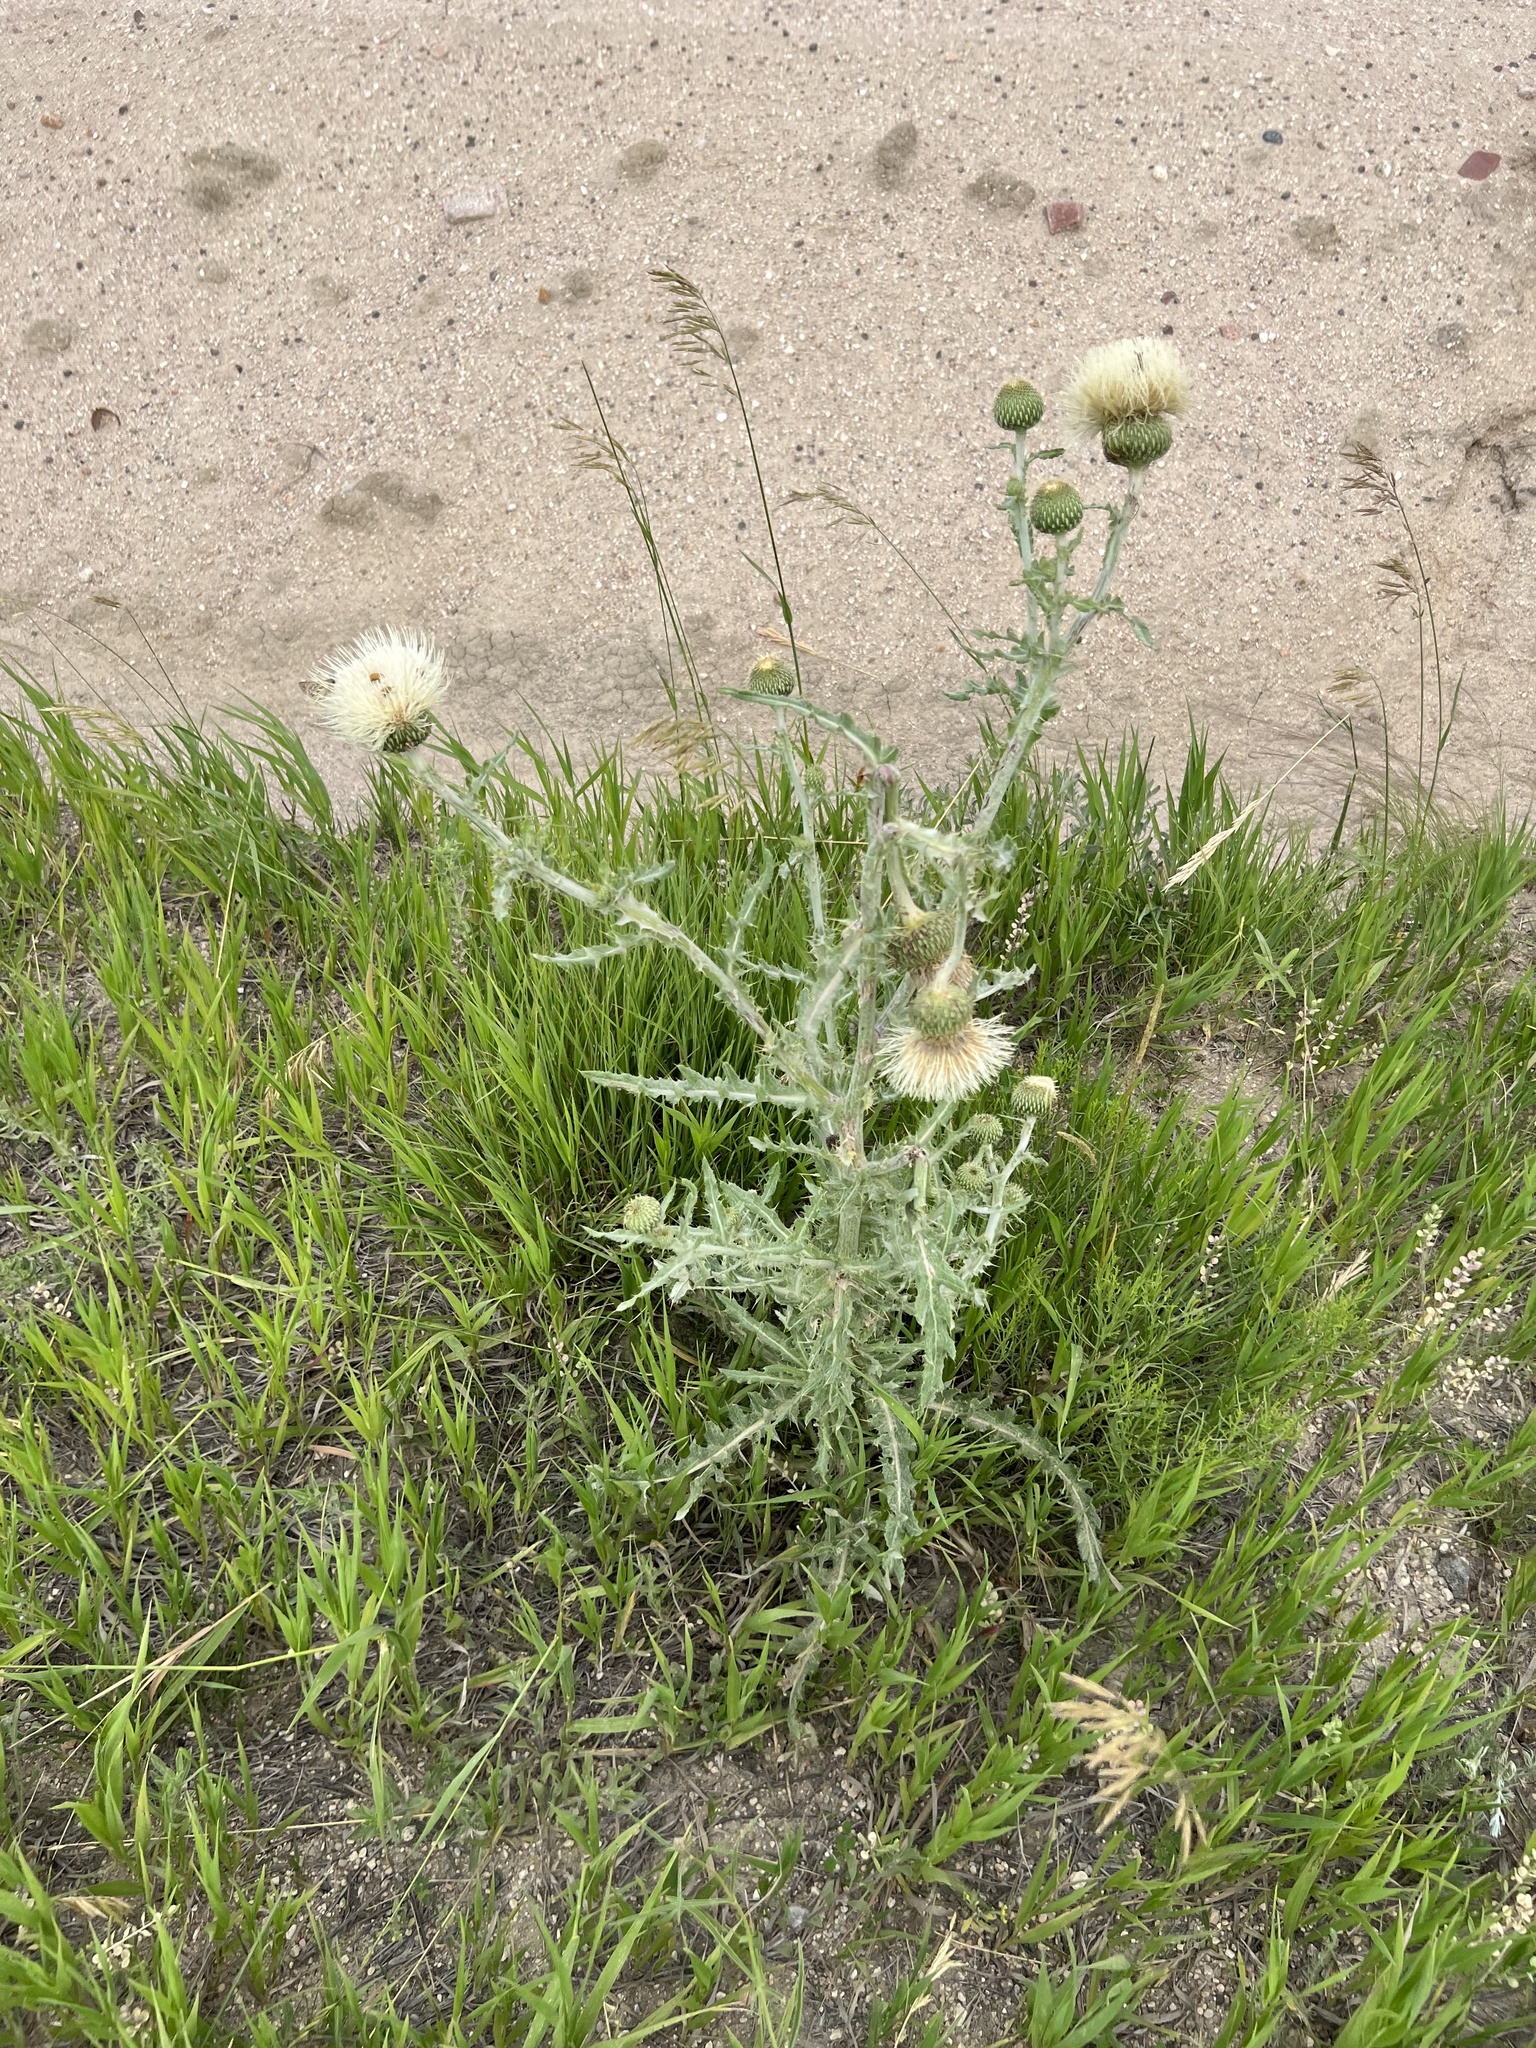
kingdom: Plantae
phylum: Tracheophyta
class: Magnoliopsida
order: Asterales
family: Asteraceae
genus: Cirsium
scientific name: Cirsium canescens
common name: Prairie thistle
